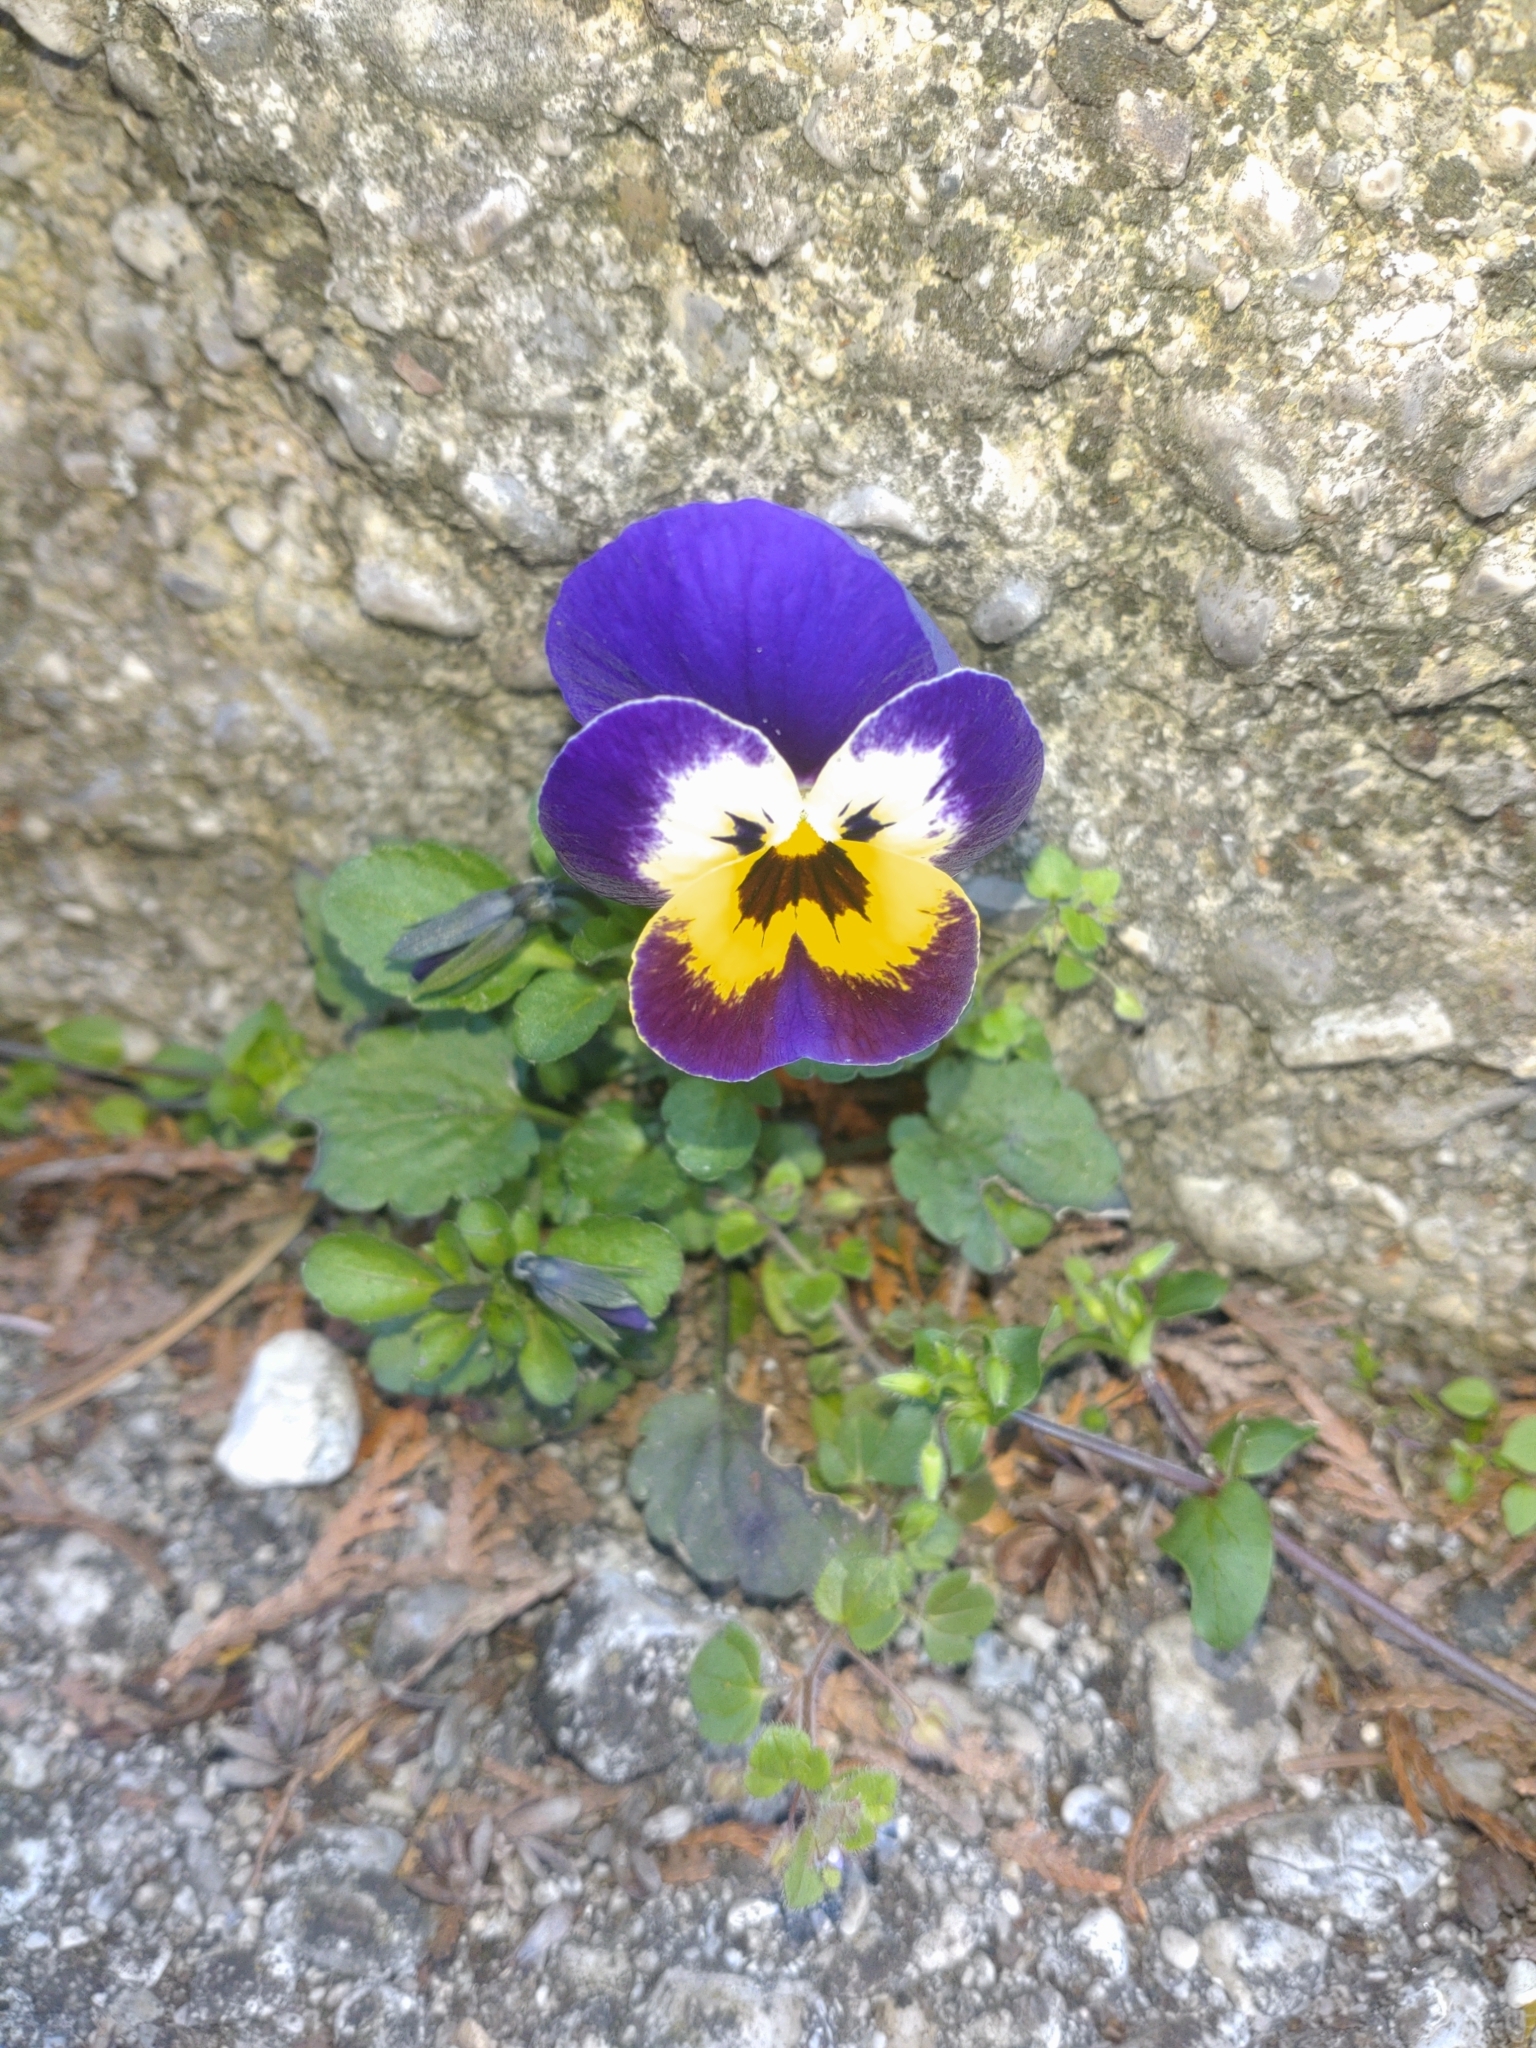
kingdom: Plantae
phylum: Tracheophyta
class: Magnoliopsida
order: Malpighiales
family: Violaceae
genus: Viola
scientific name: Viola williamsii
